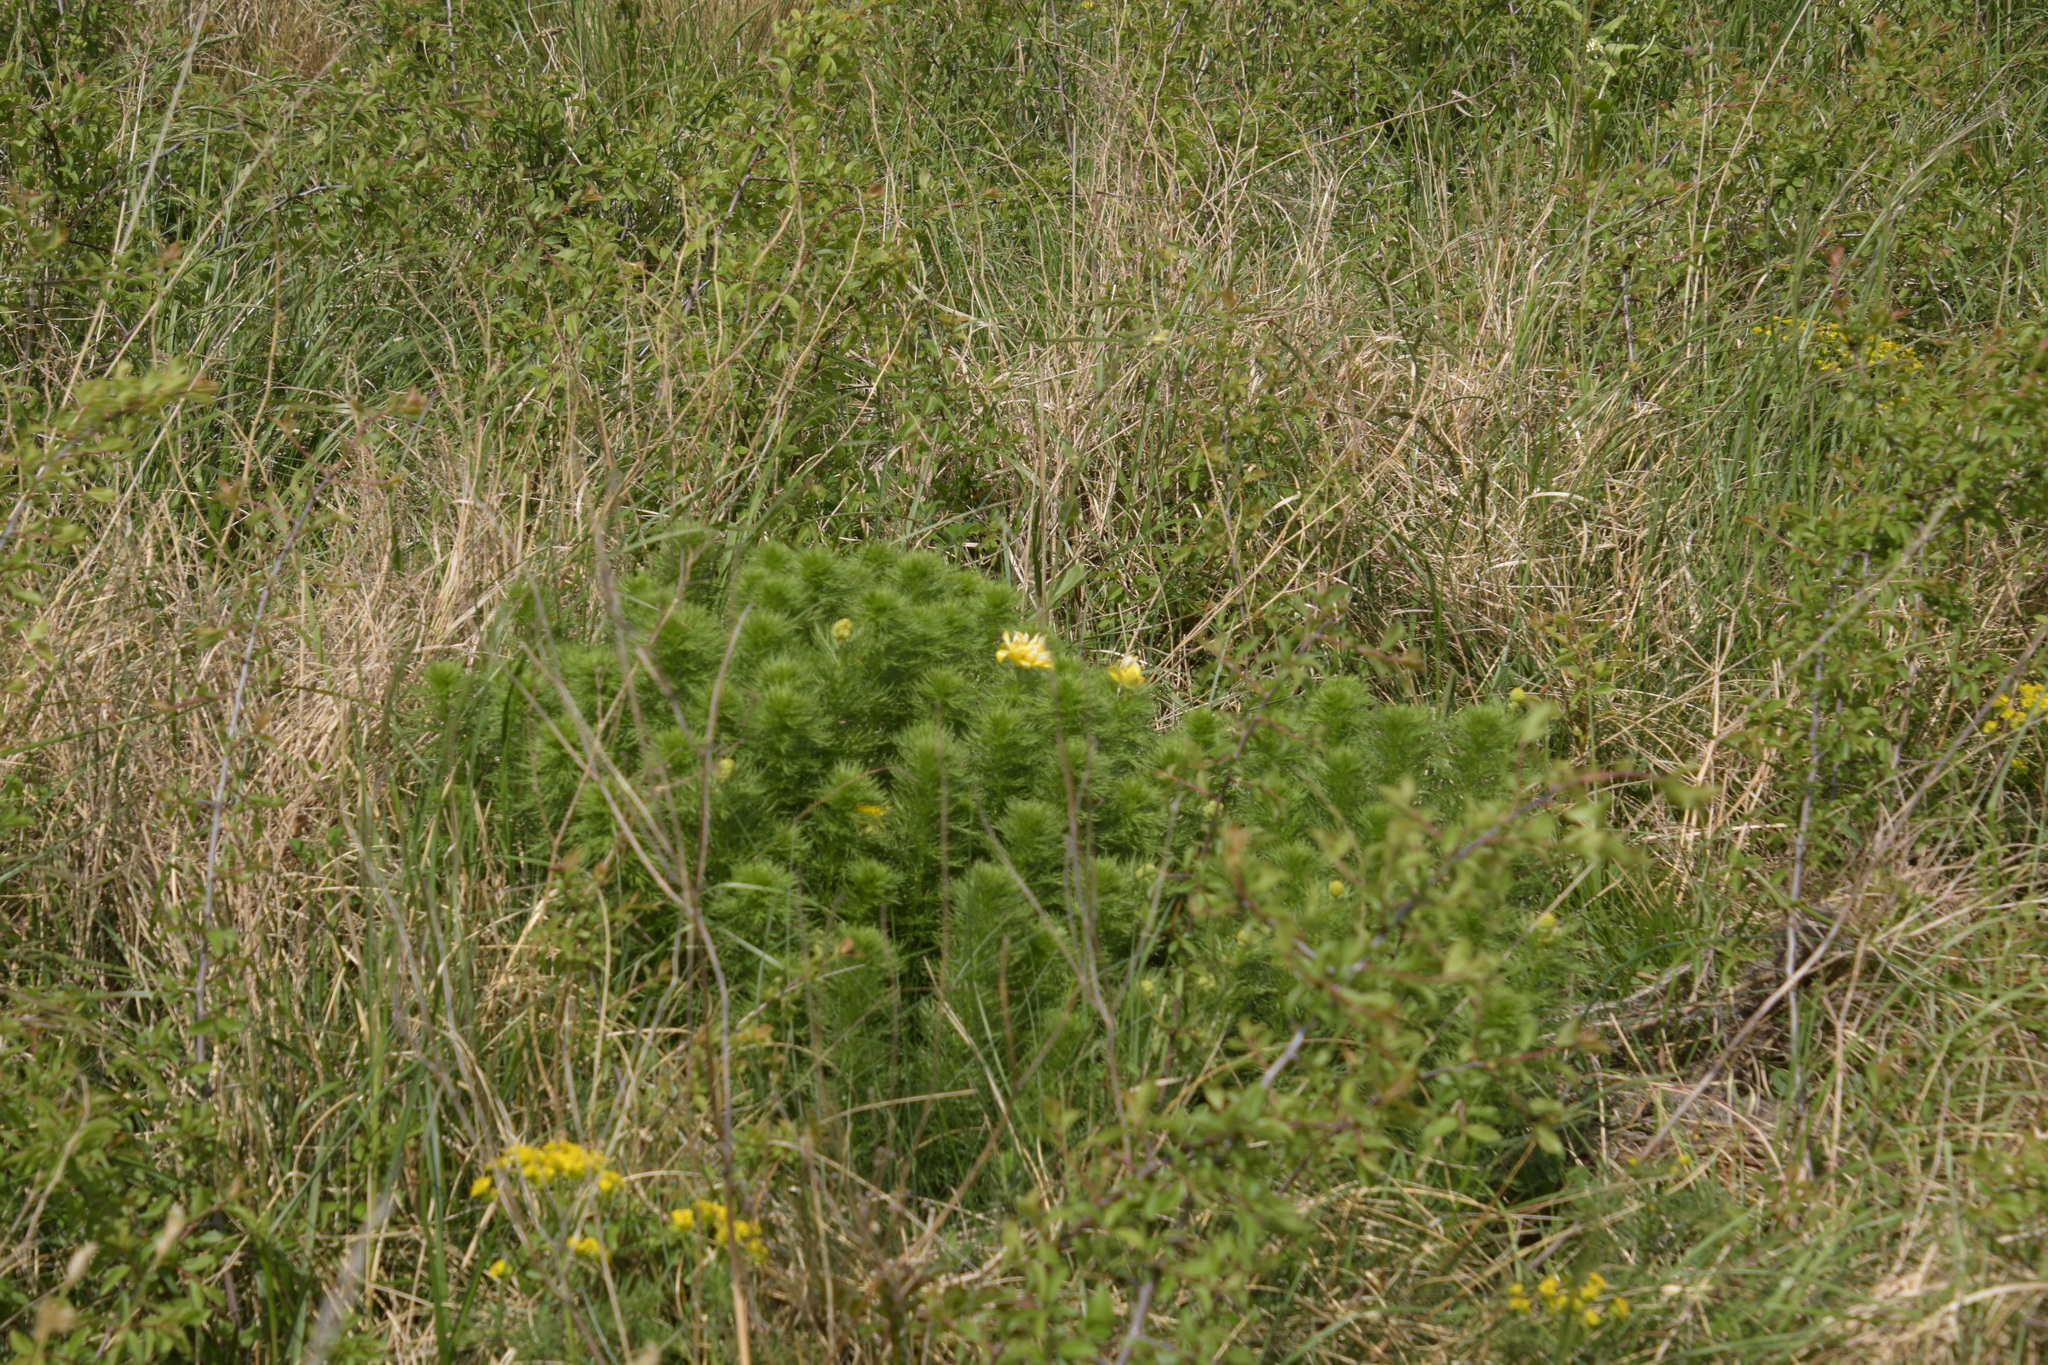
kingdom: Plantae
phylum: Tracheophyta
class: Magnoliopsida
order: Ranunculales
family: Ranunculaceae
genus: Adonis
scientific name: Adonis vernalis
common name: Yellow pheasants-eye
